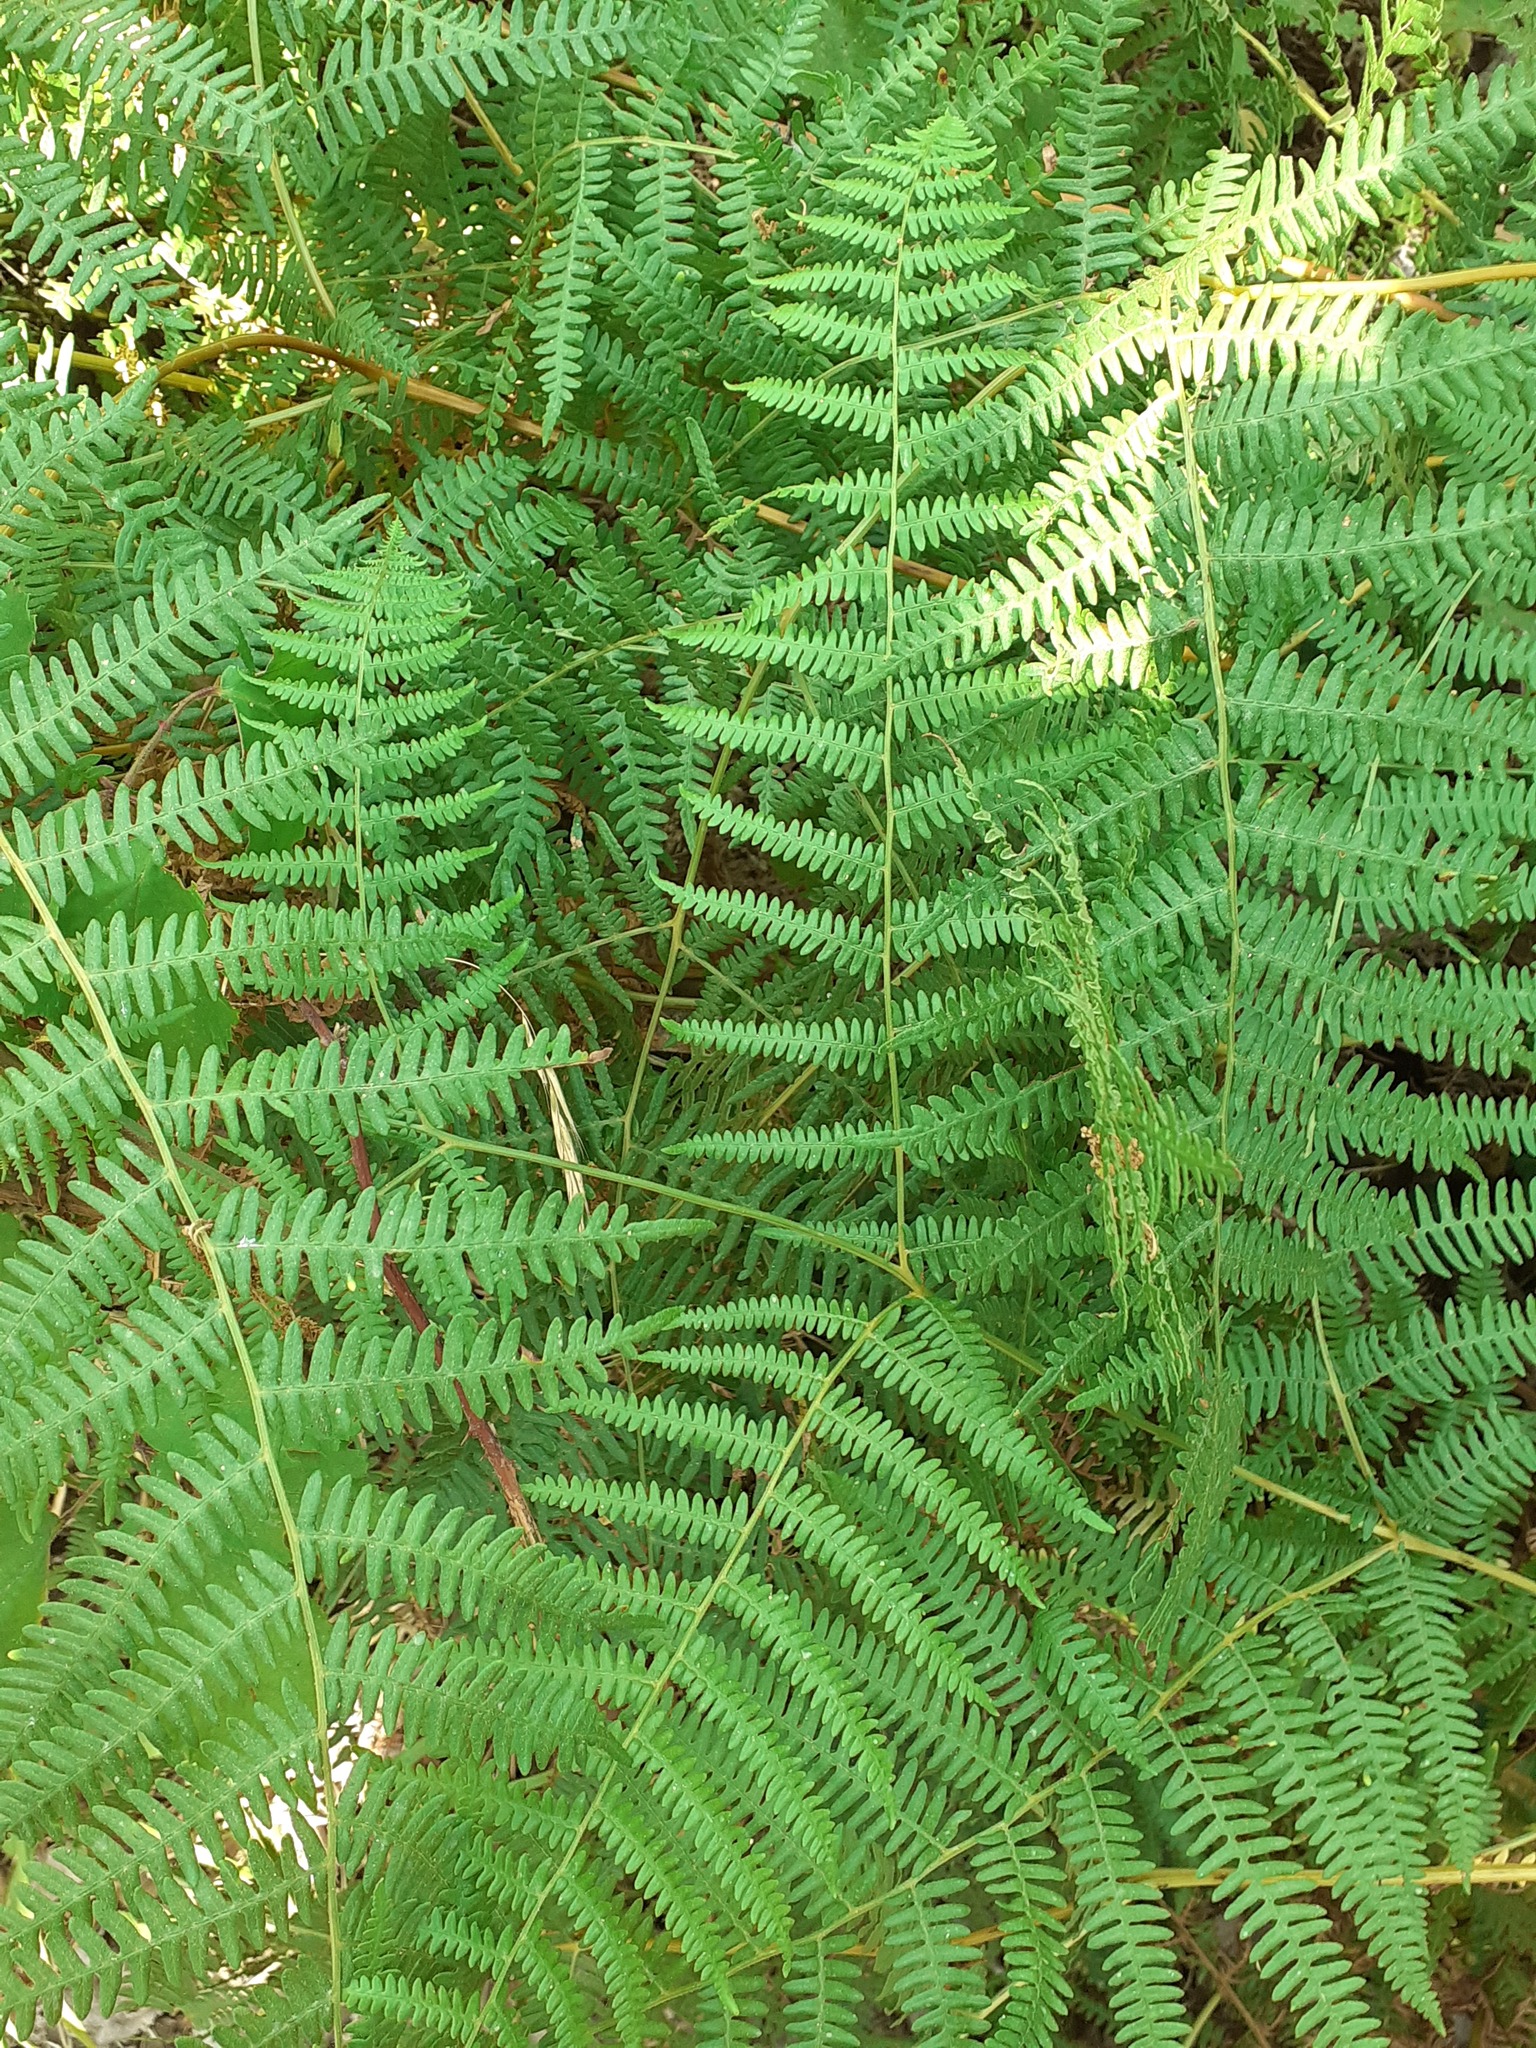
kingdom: Plantae
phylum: Tracheophyta
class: Polypodiopsida
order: Polypodiales
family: Dennstaedtiaceae
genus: Pteridium
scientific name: Pteridium aquilinum
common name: Bracken
